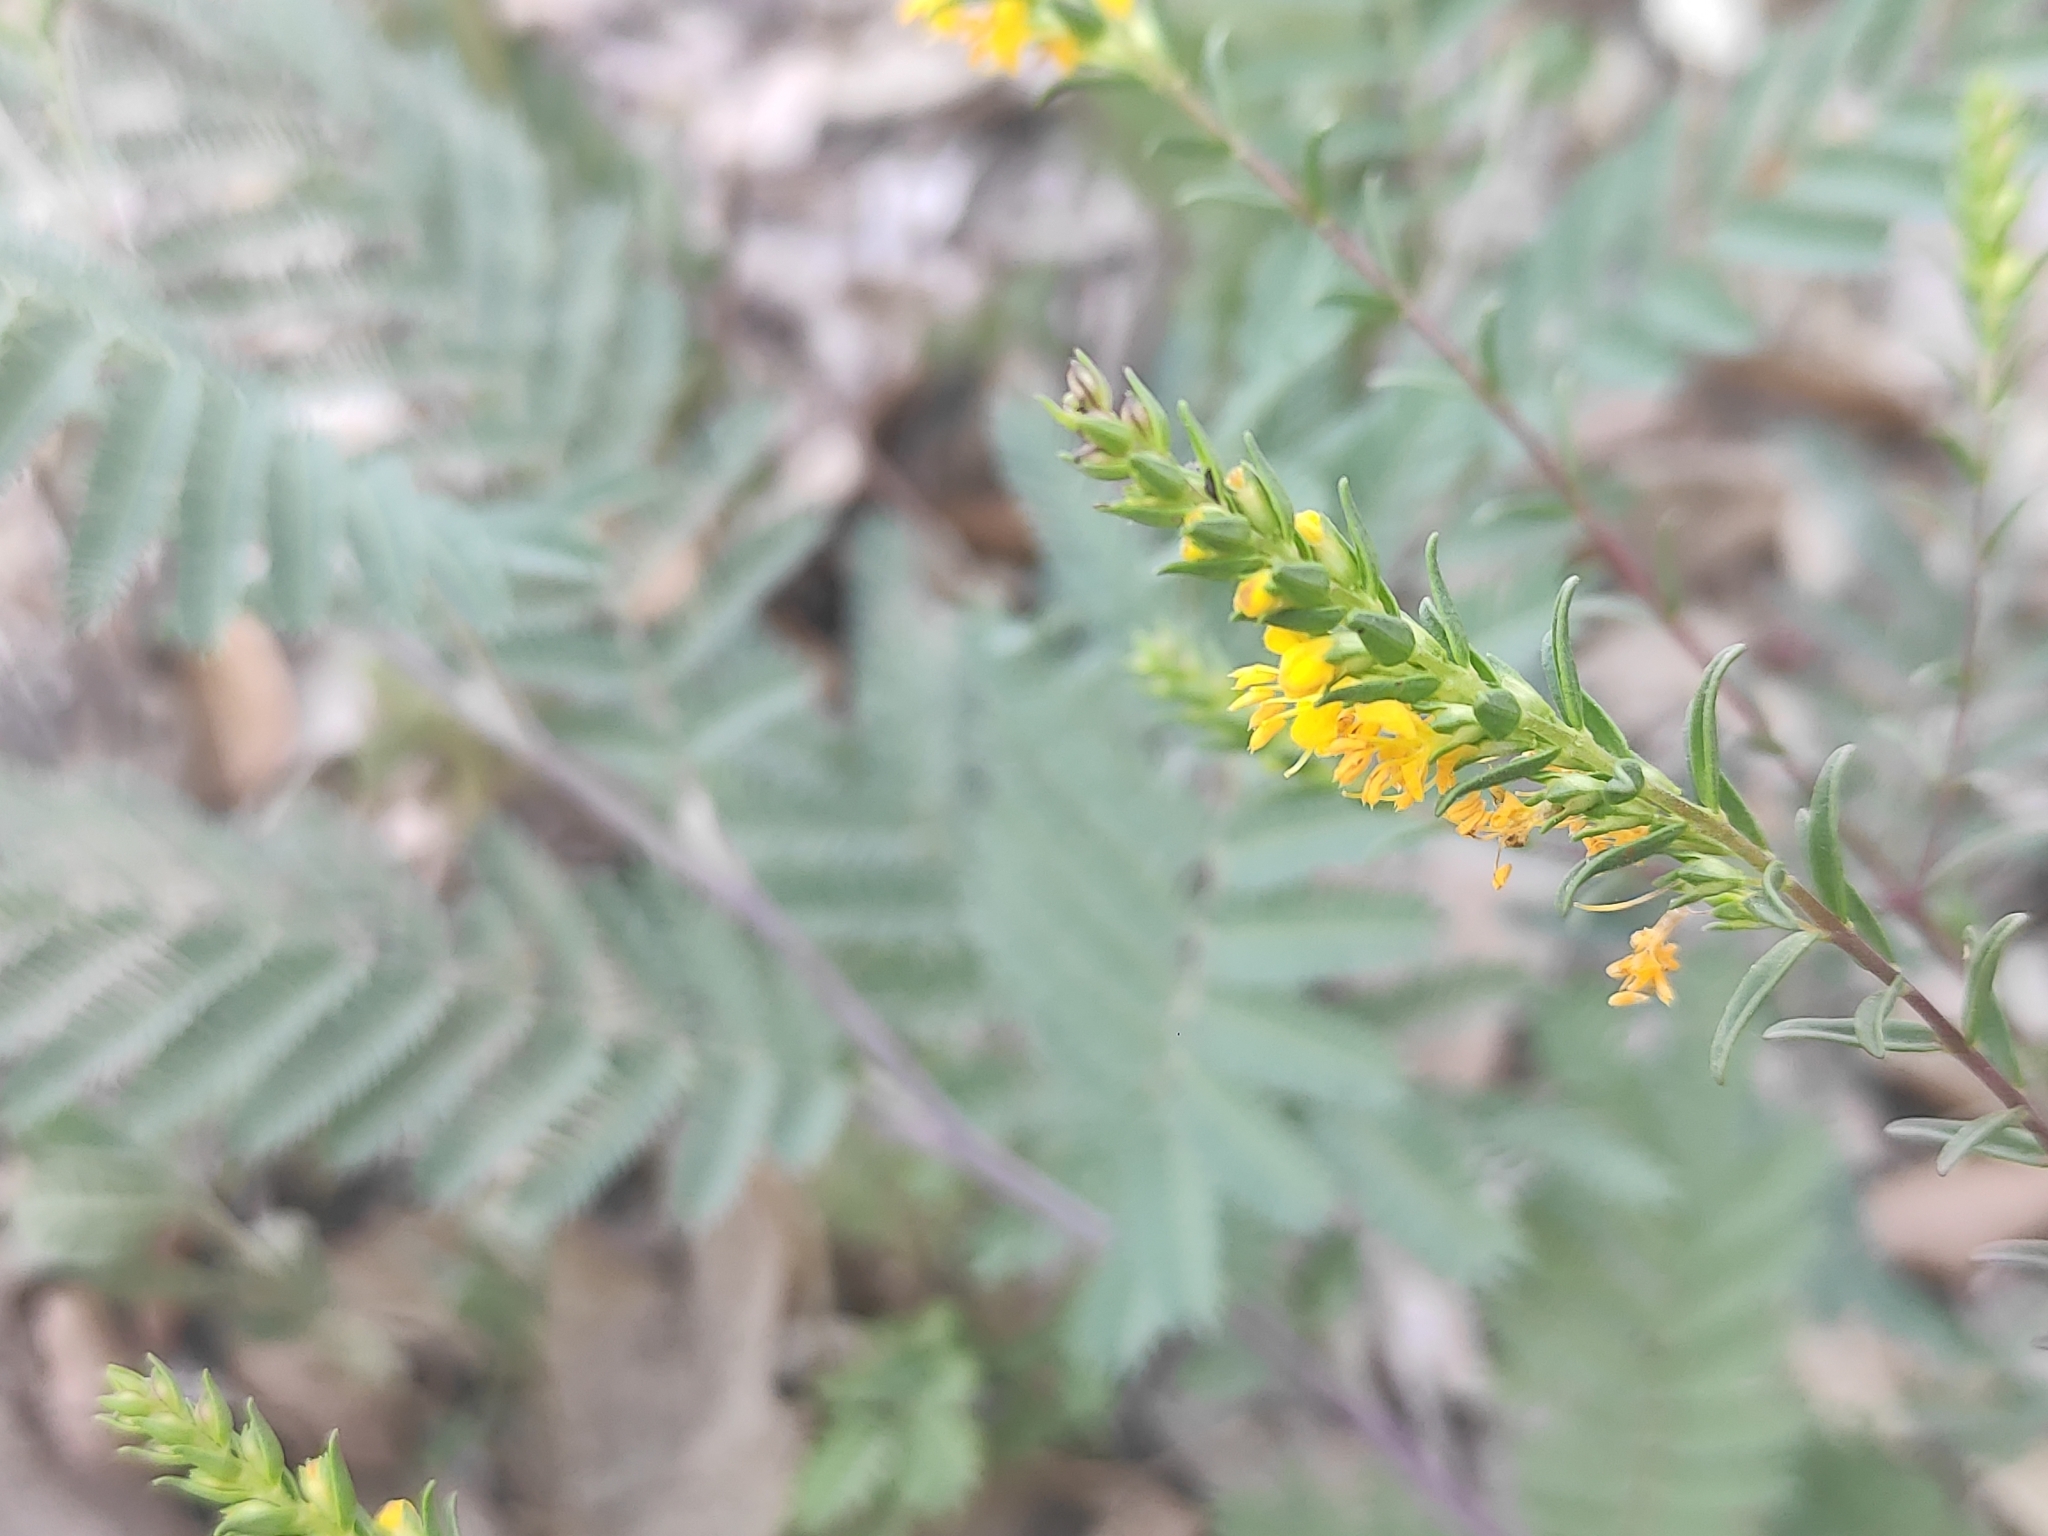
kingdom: Plantae
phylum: Tracheophyta
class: Magnoliopsida
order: Lamiales
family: Orobanchaceae
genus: Odontites
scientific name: Odontites luteus
